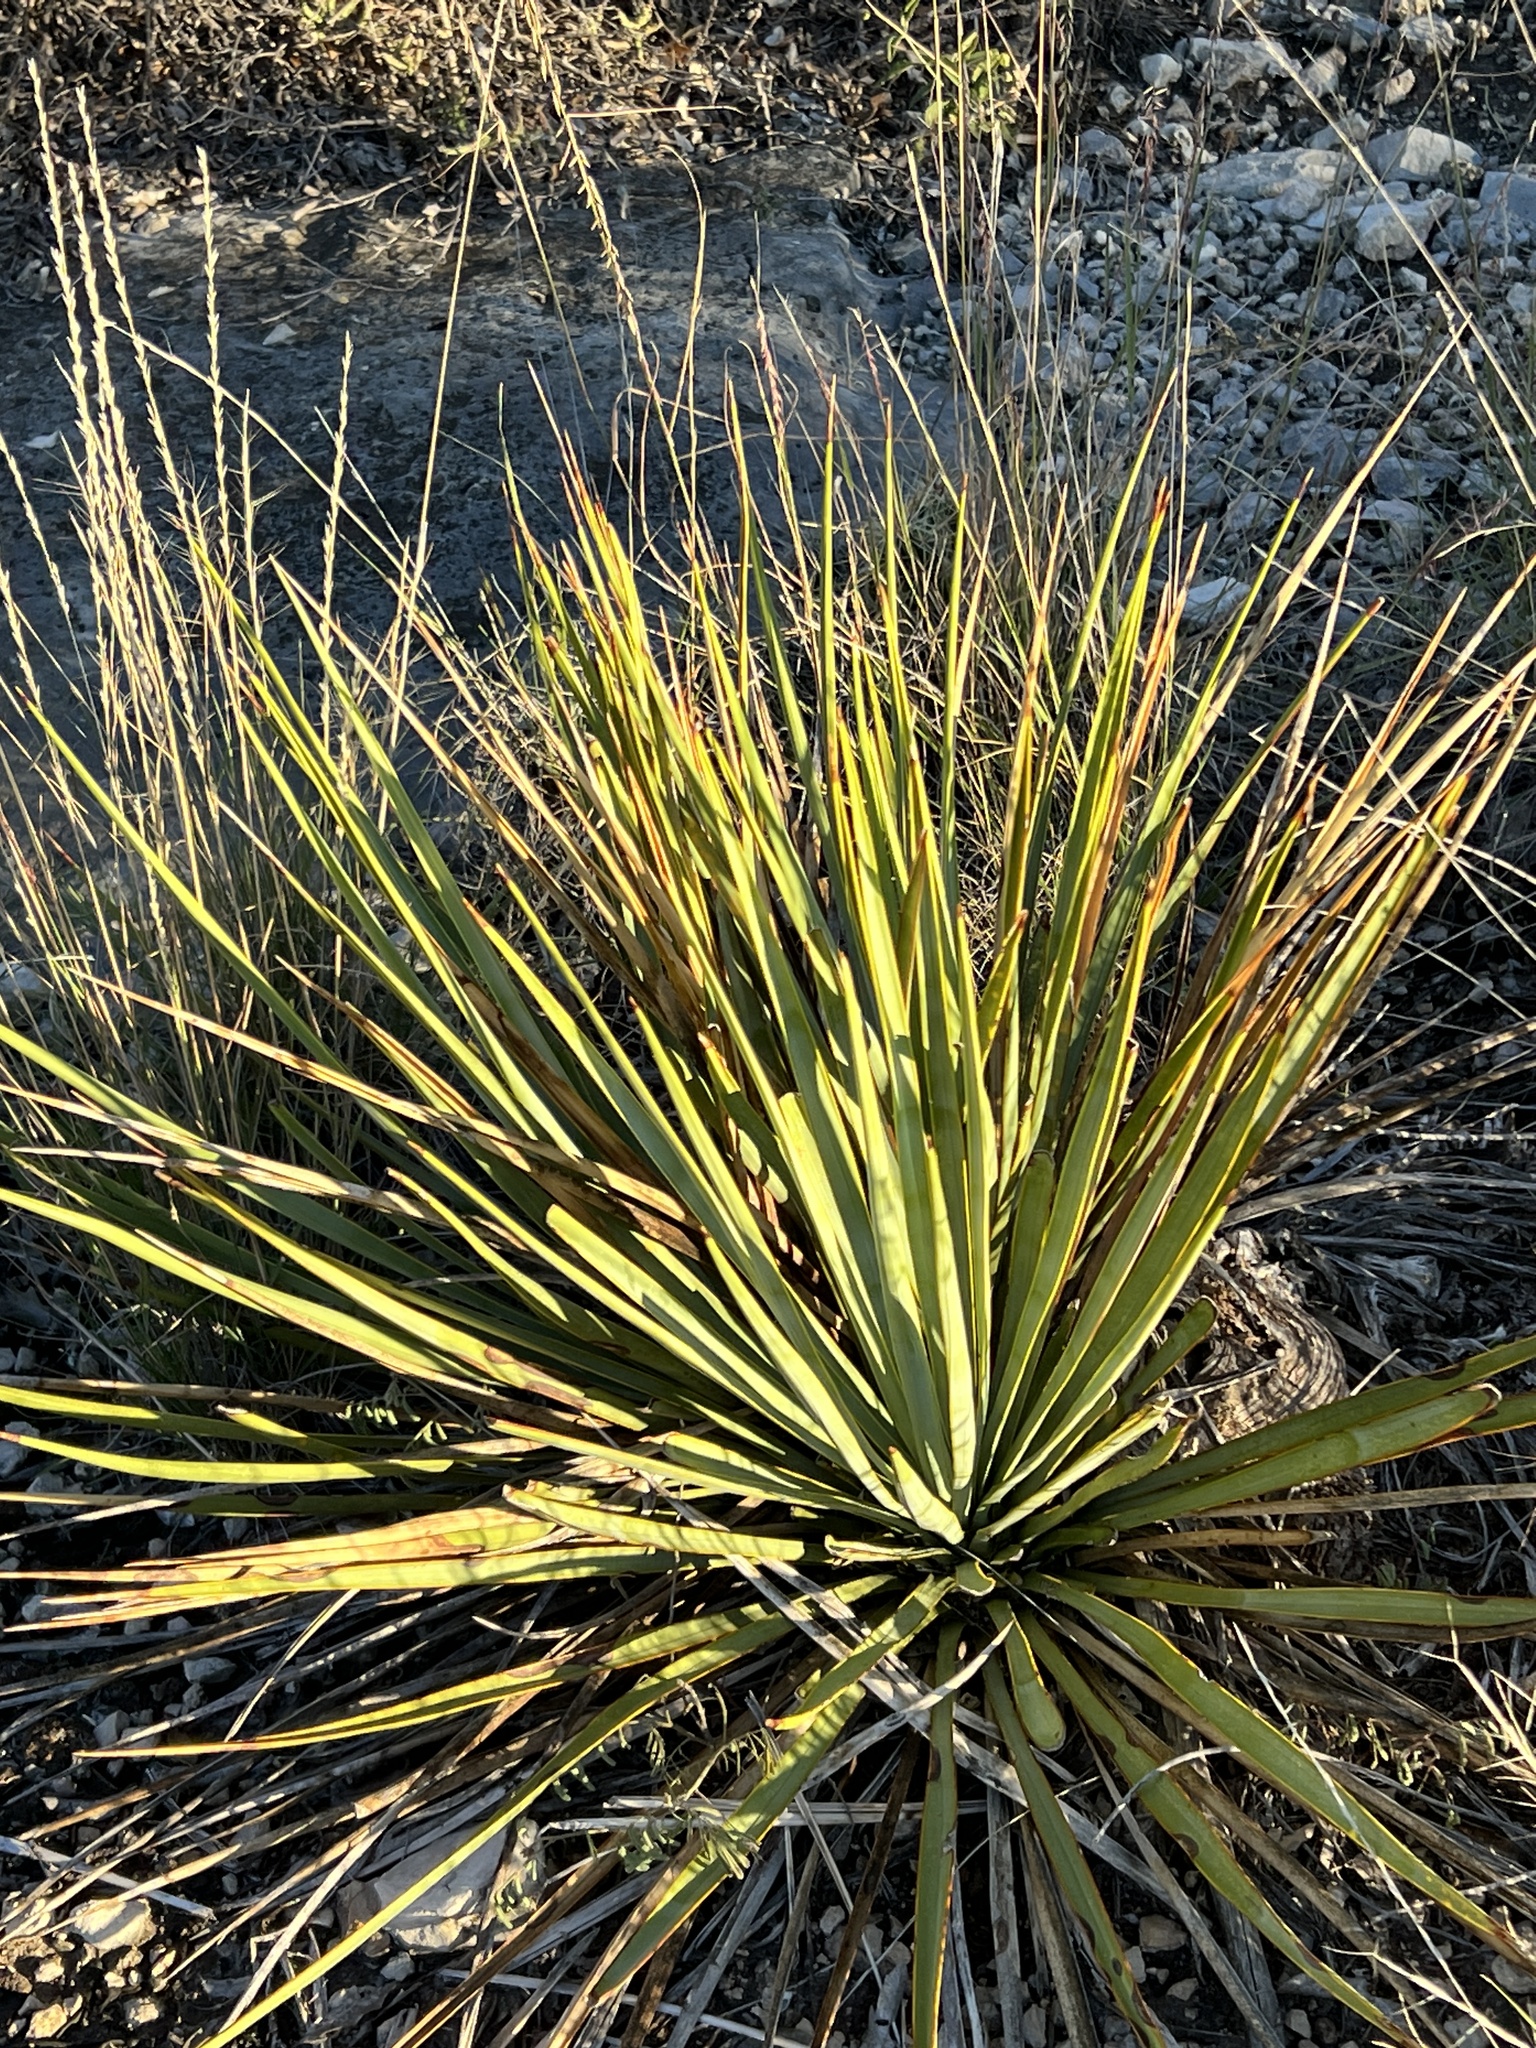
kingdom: Plantae
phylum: Tracheophyta
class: Liliopsida
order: Asparagales
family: Asparagaceae
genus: Yucca
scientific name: Yucca reverchonii
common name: San angelo yucca
